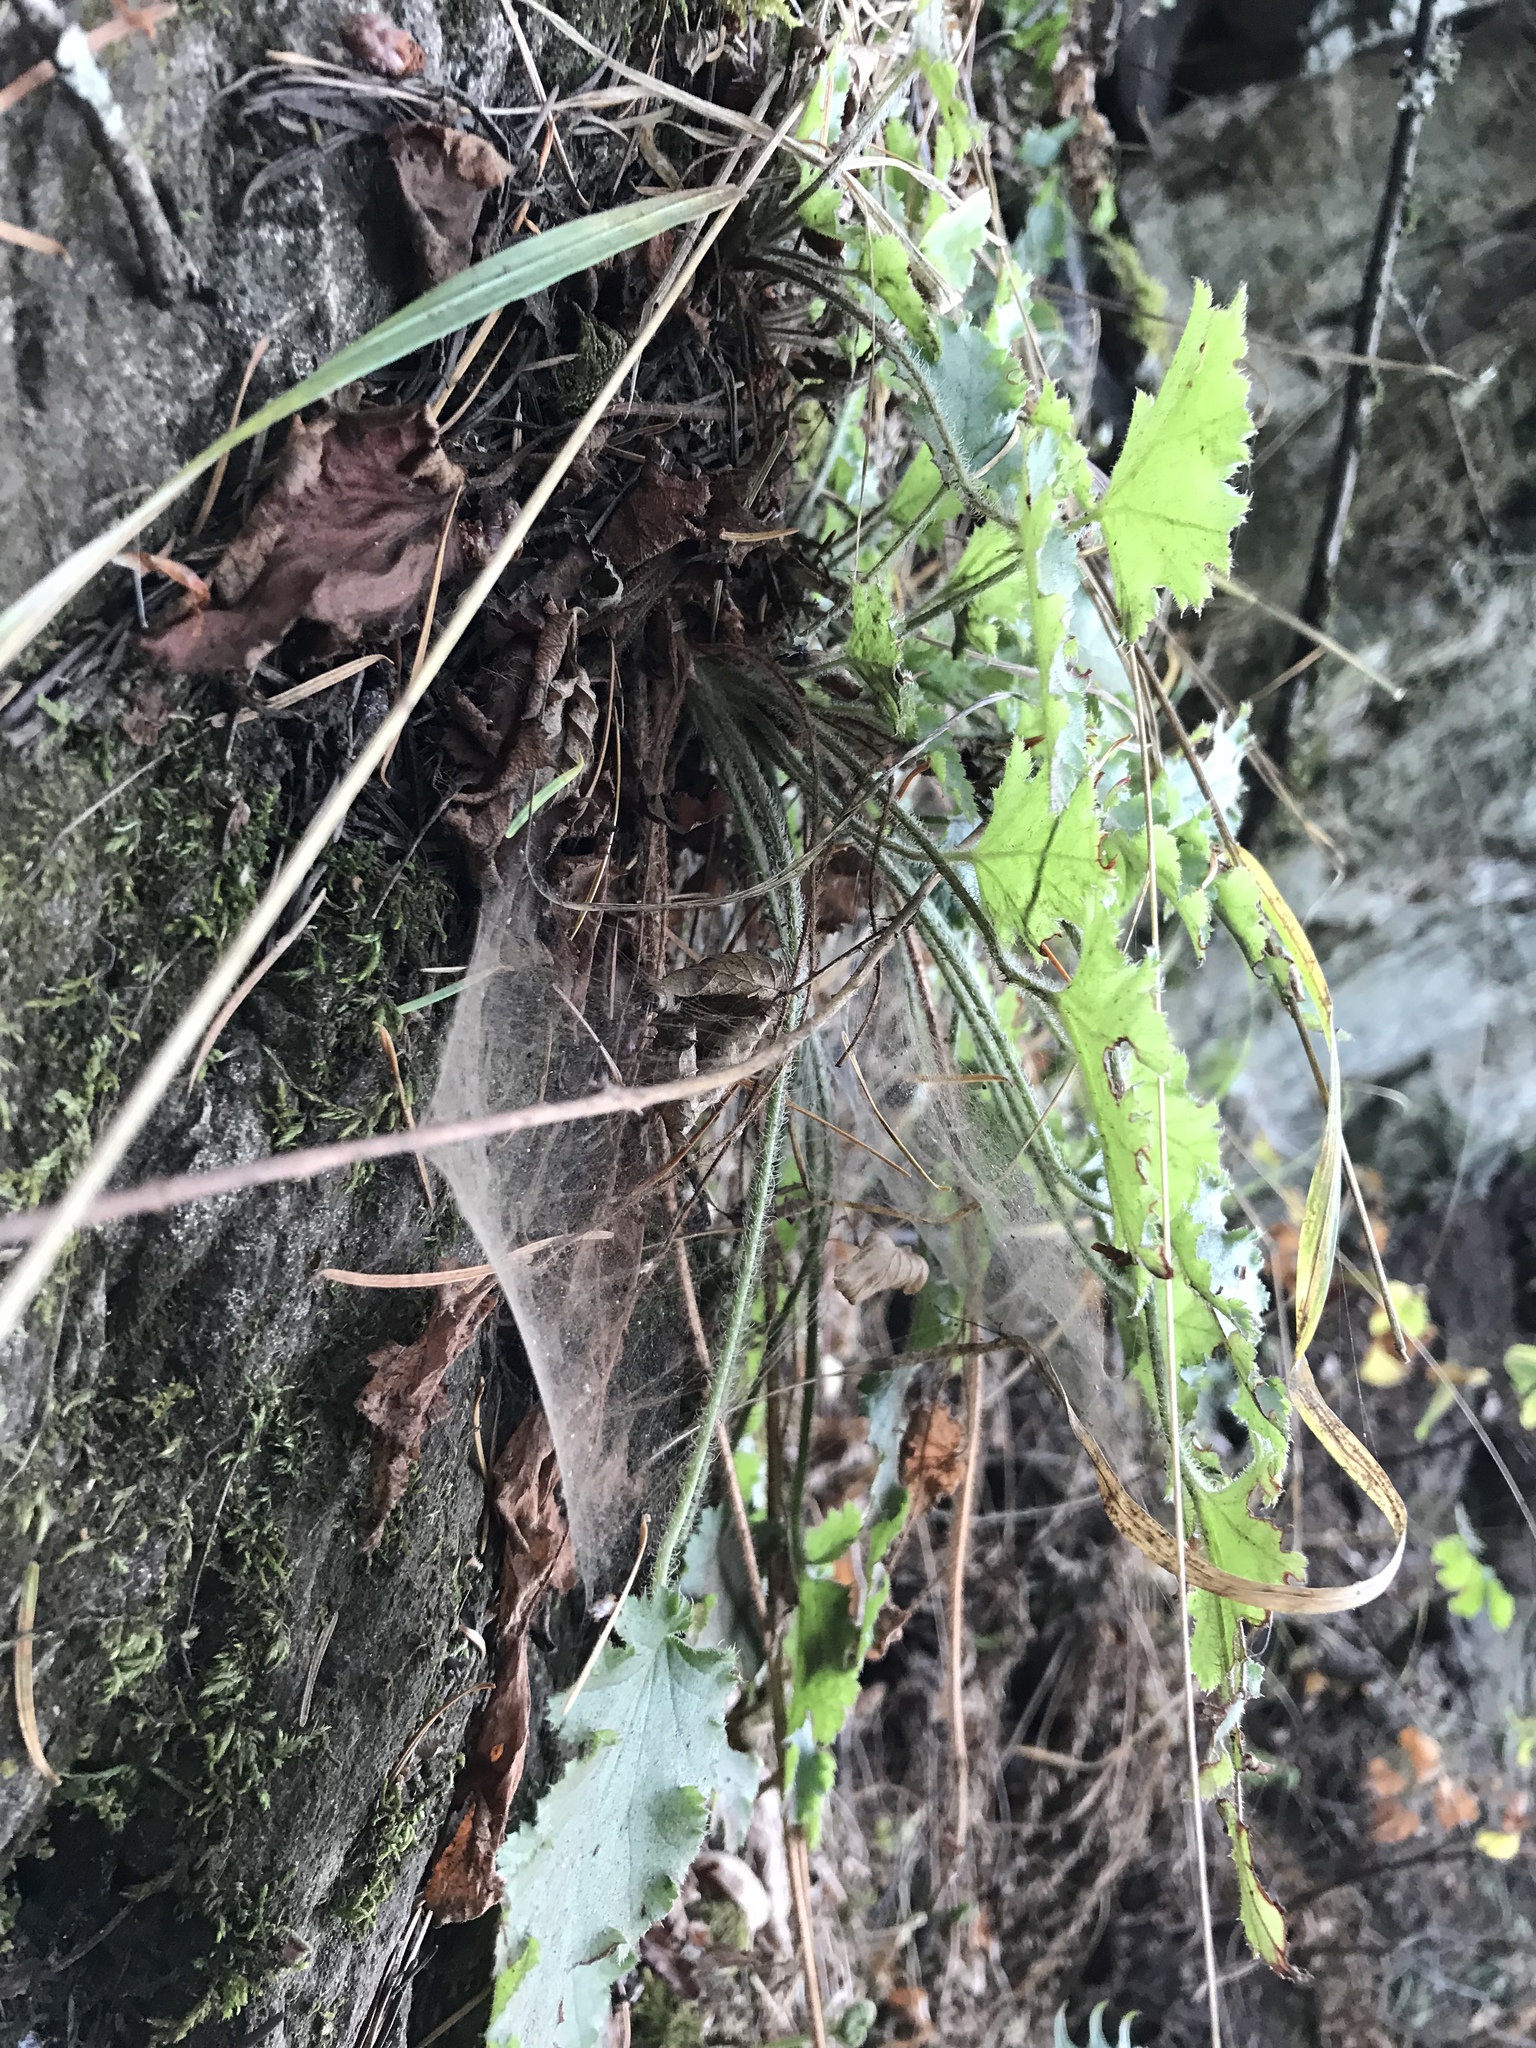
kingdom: Plantae
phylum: Tracheophyta
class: Magnoliopsida
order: Saxifragales
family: Saxifragaceae
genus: Heuchera
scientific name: Heuchera micrantha
